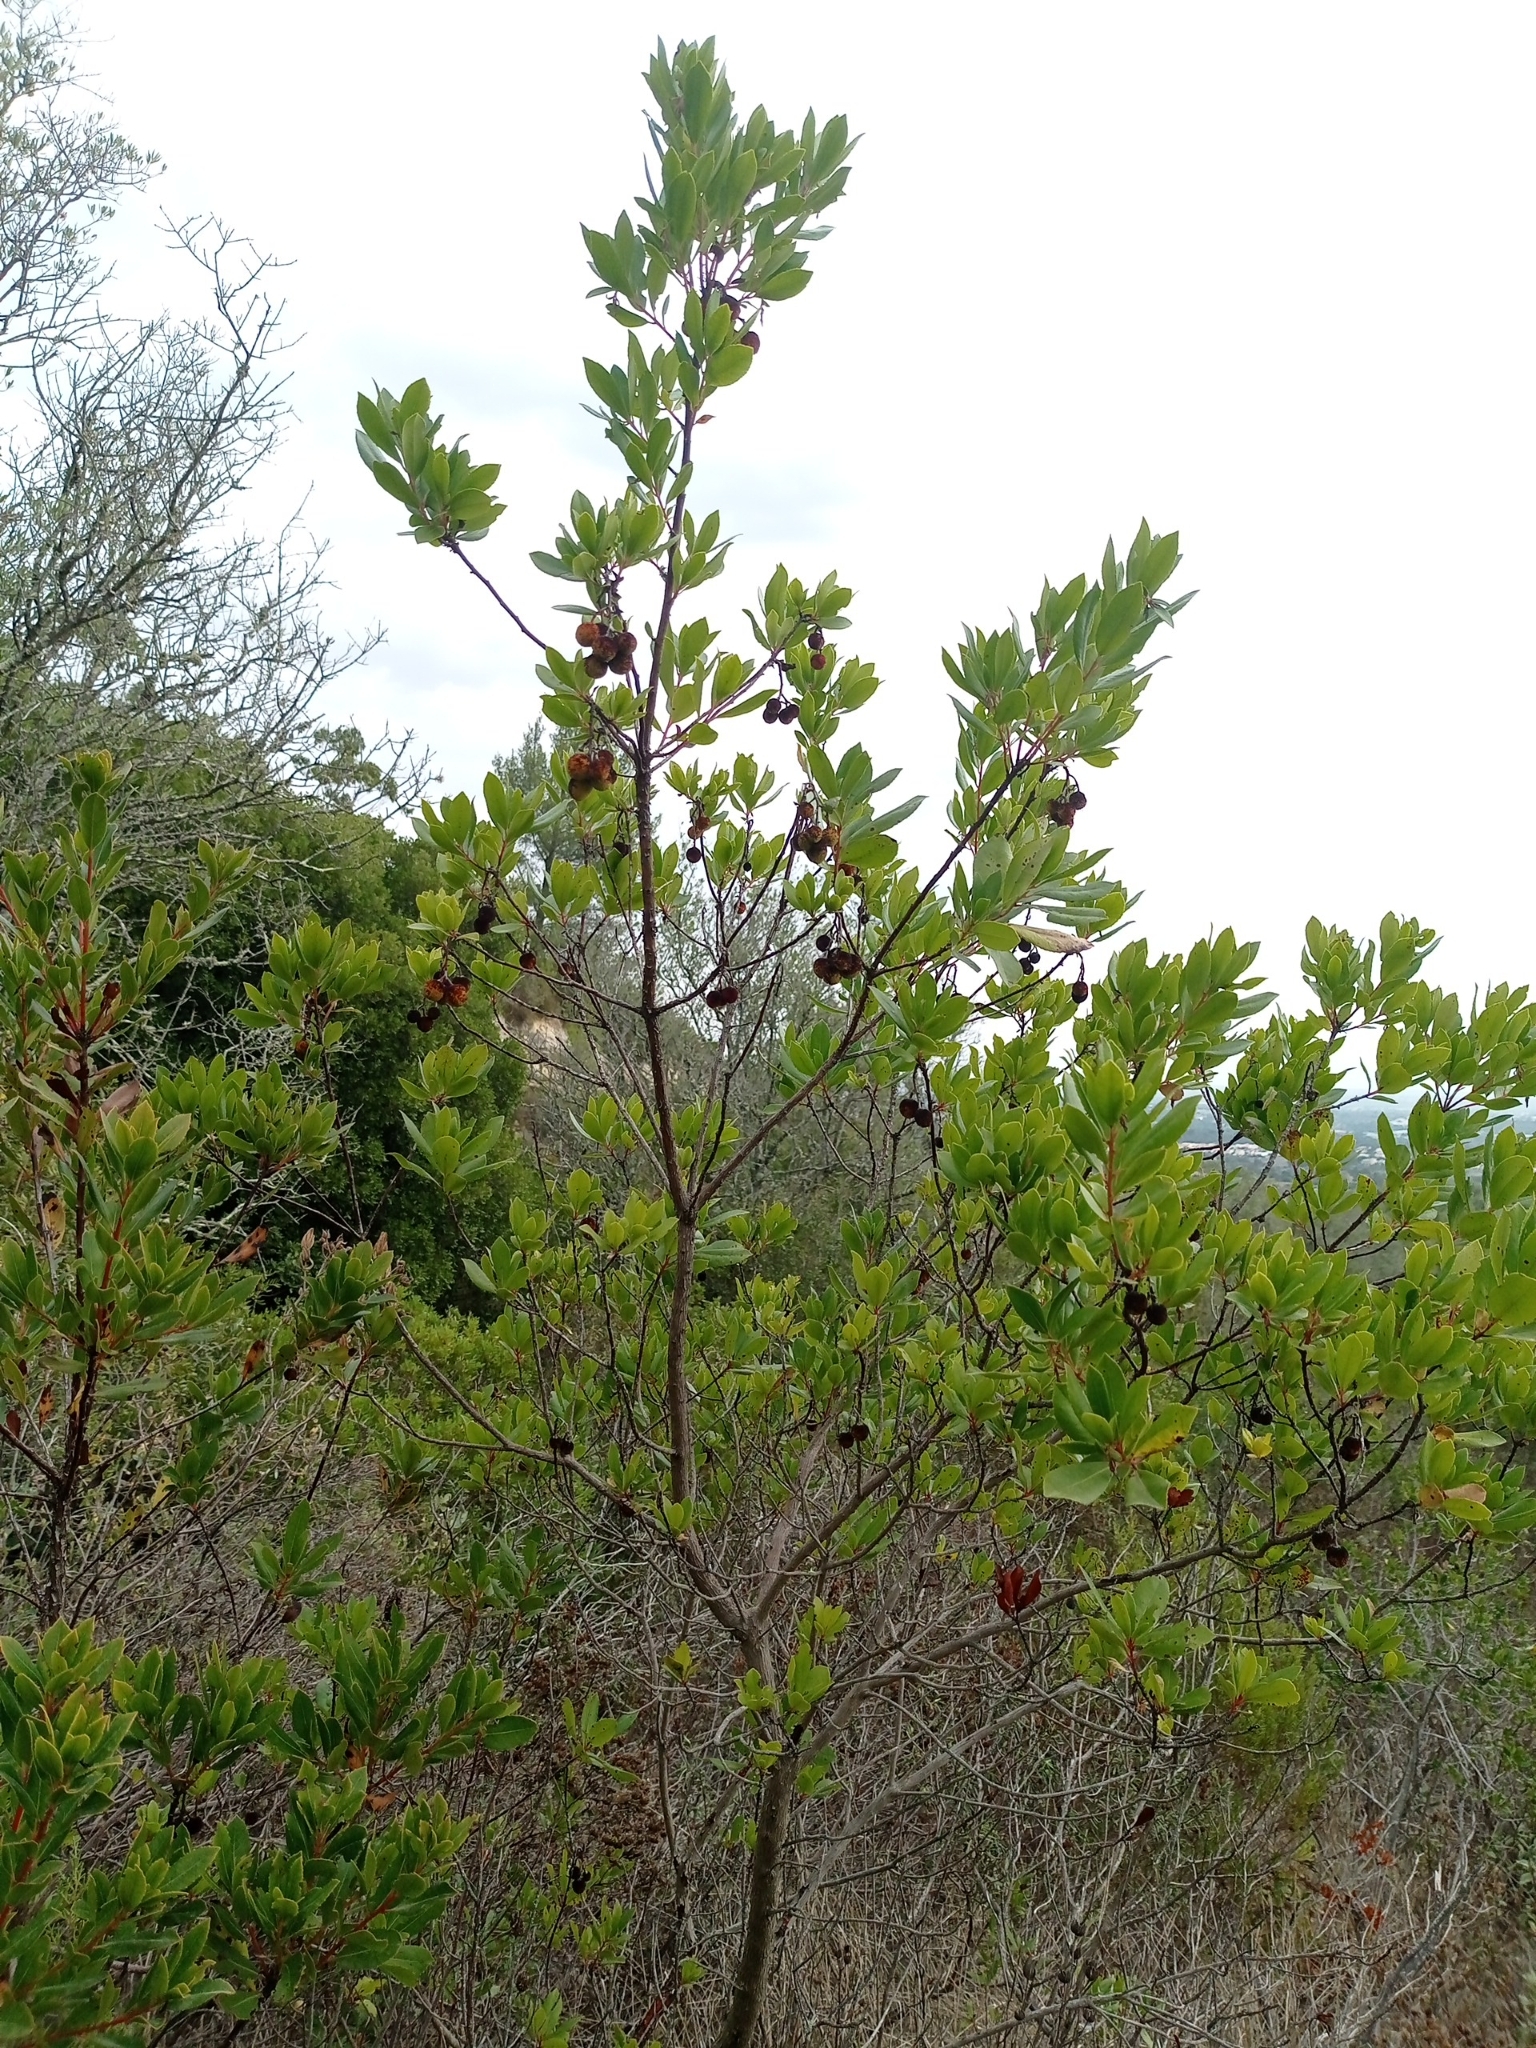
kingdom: Plantae
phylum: Tracheophyta
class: Magnoliopsida
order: Ericales
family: Ericaceae
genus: Arbutus
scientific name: Arbutus unedo
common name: Strawberry-tree
